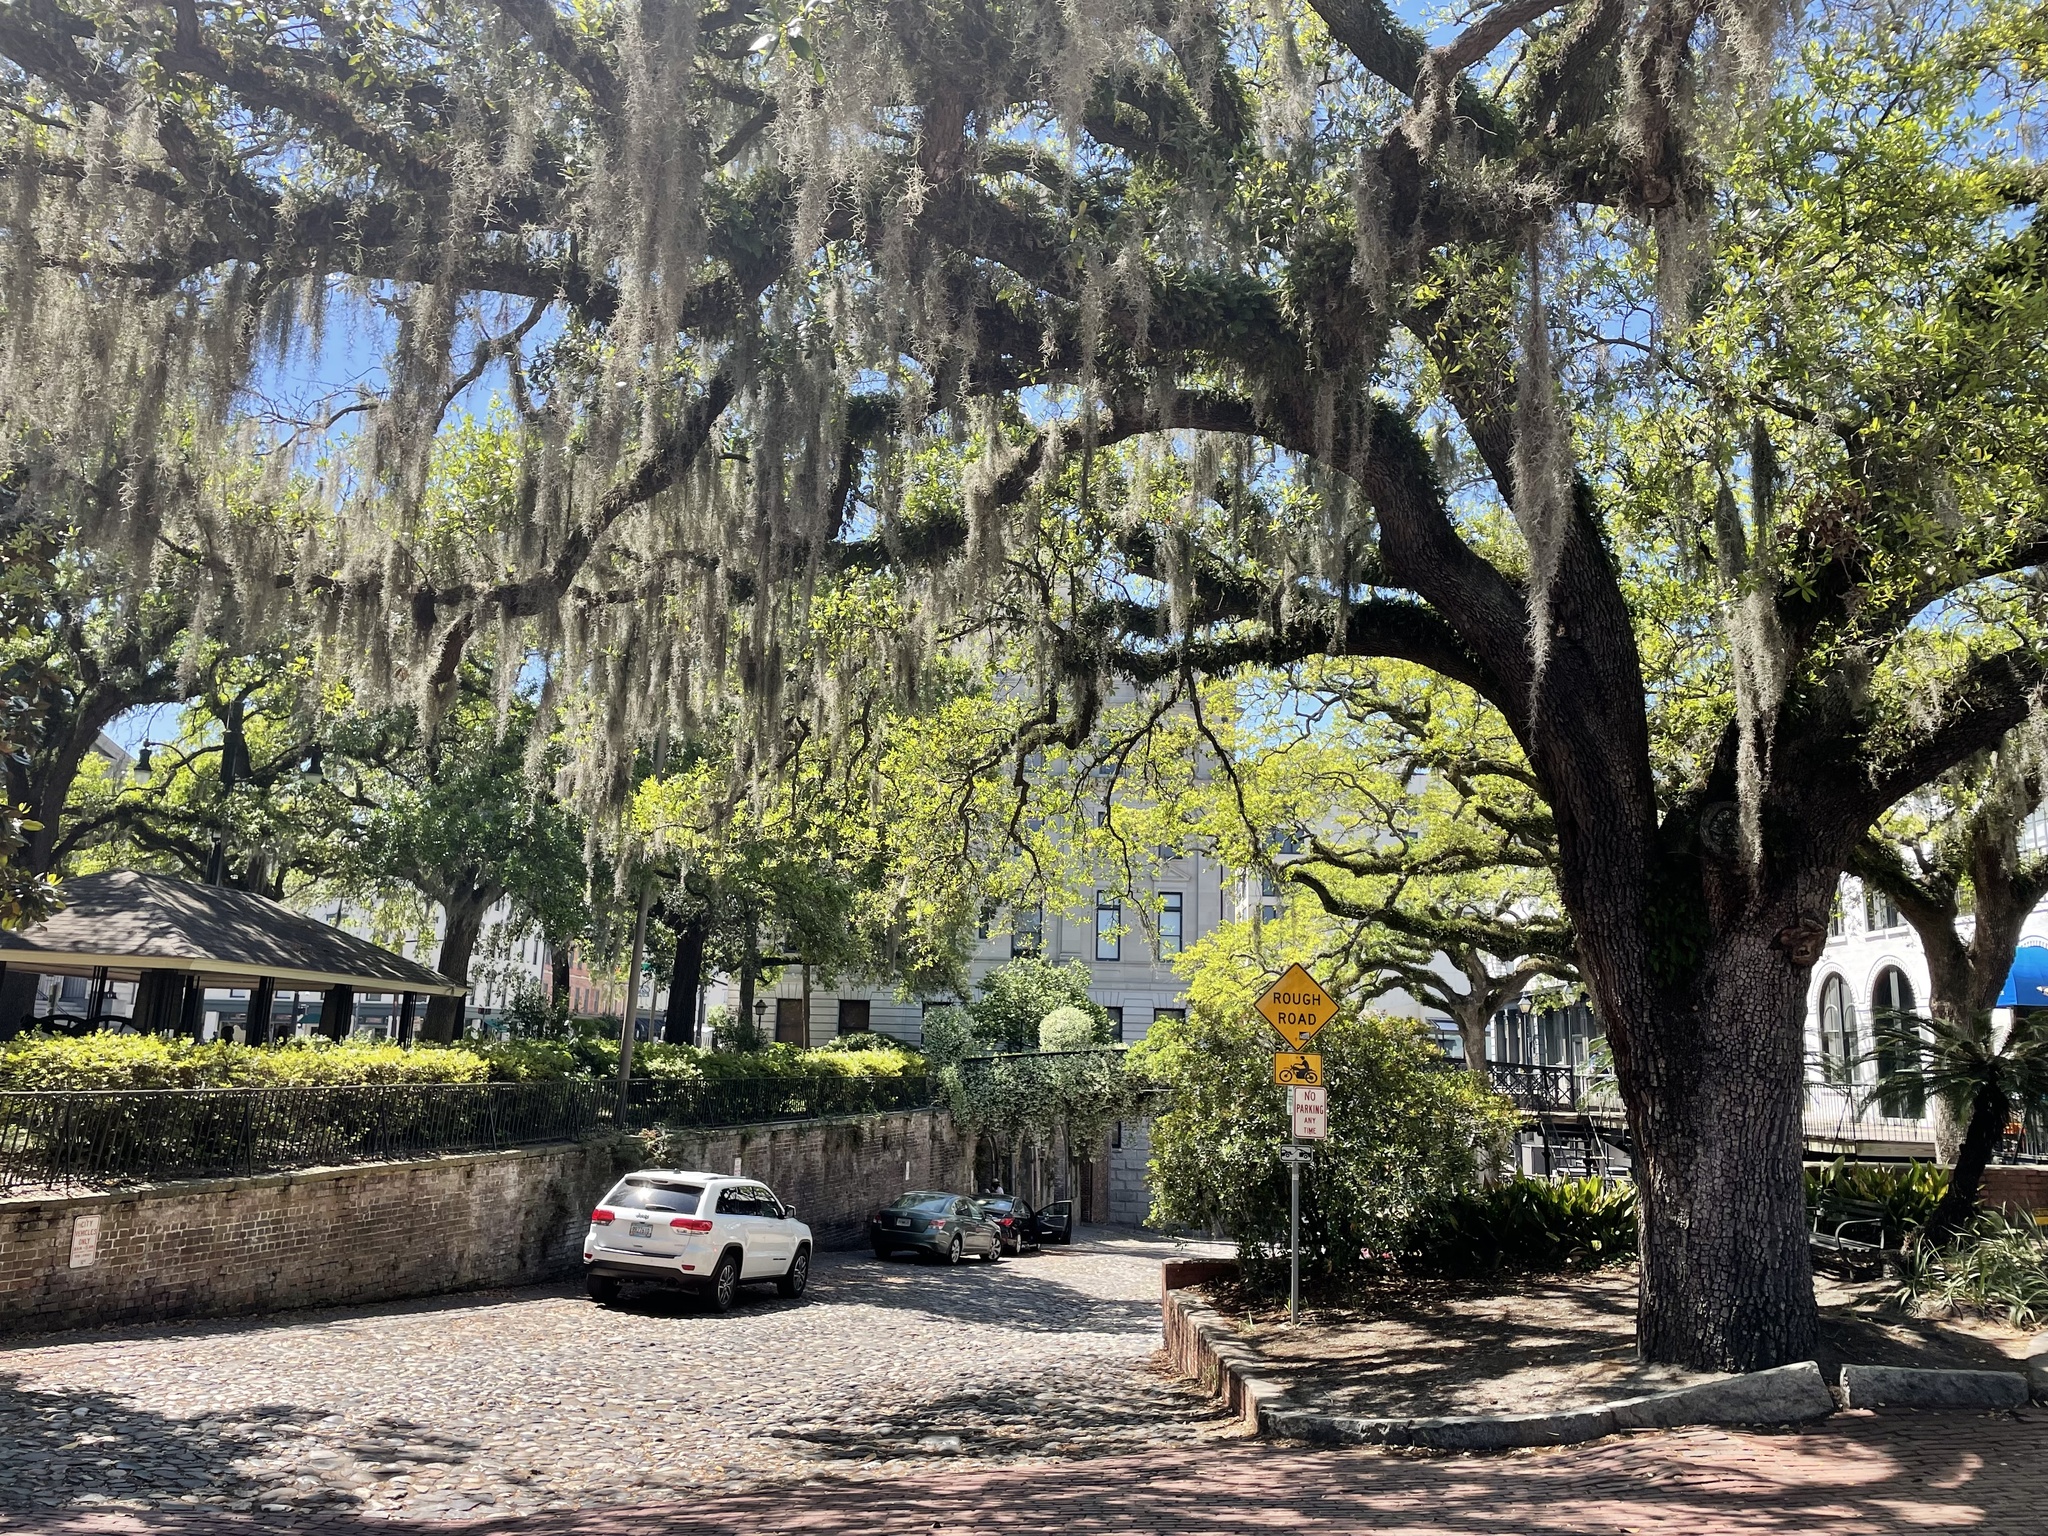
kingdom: Plantae
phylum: Tracheophyta
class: Liliopsida
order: Poales
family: Bromeliaceae
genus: Tillandsia
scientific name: Tillandsia usneoides
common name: Spanish moss
